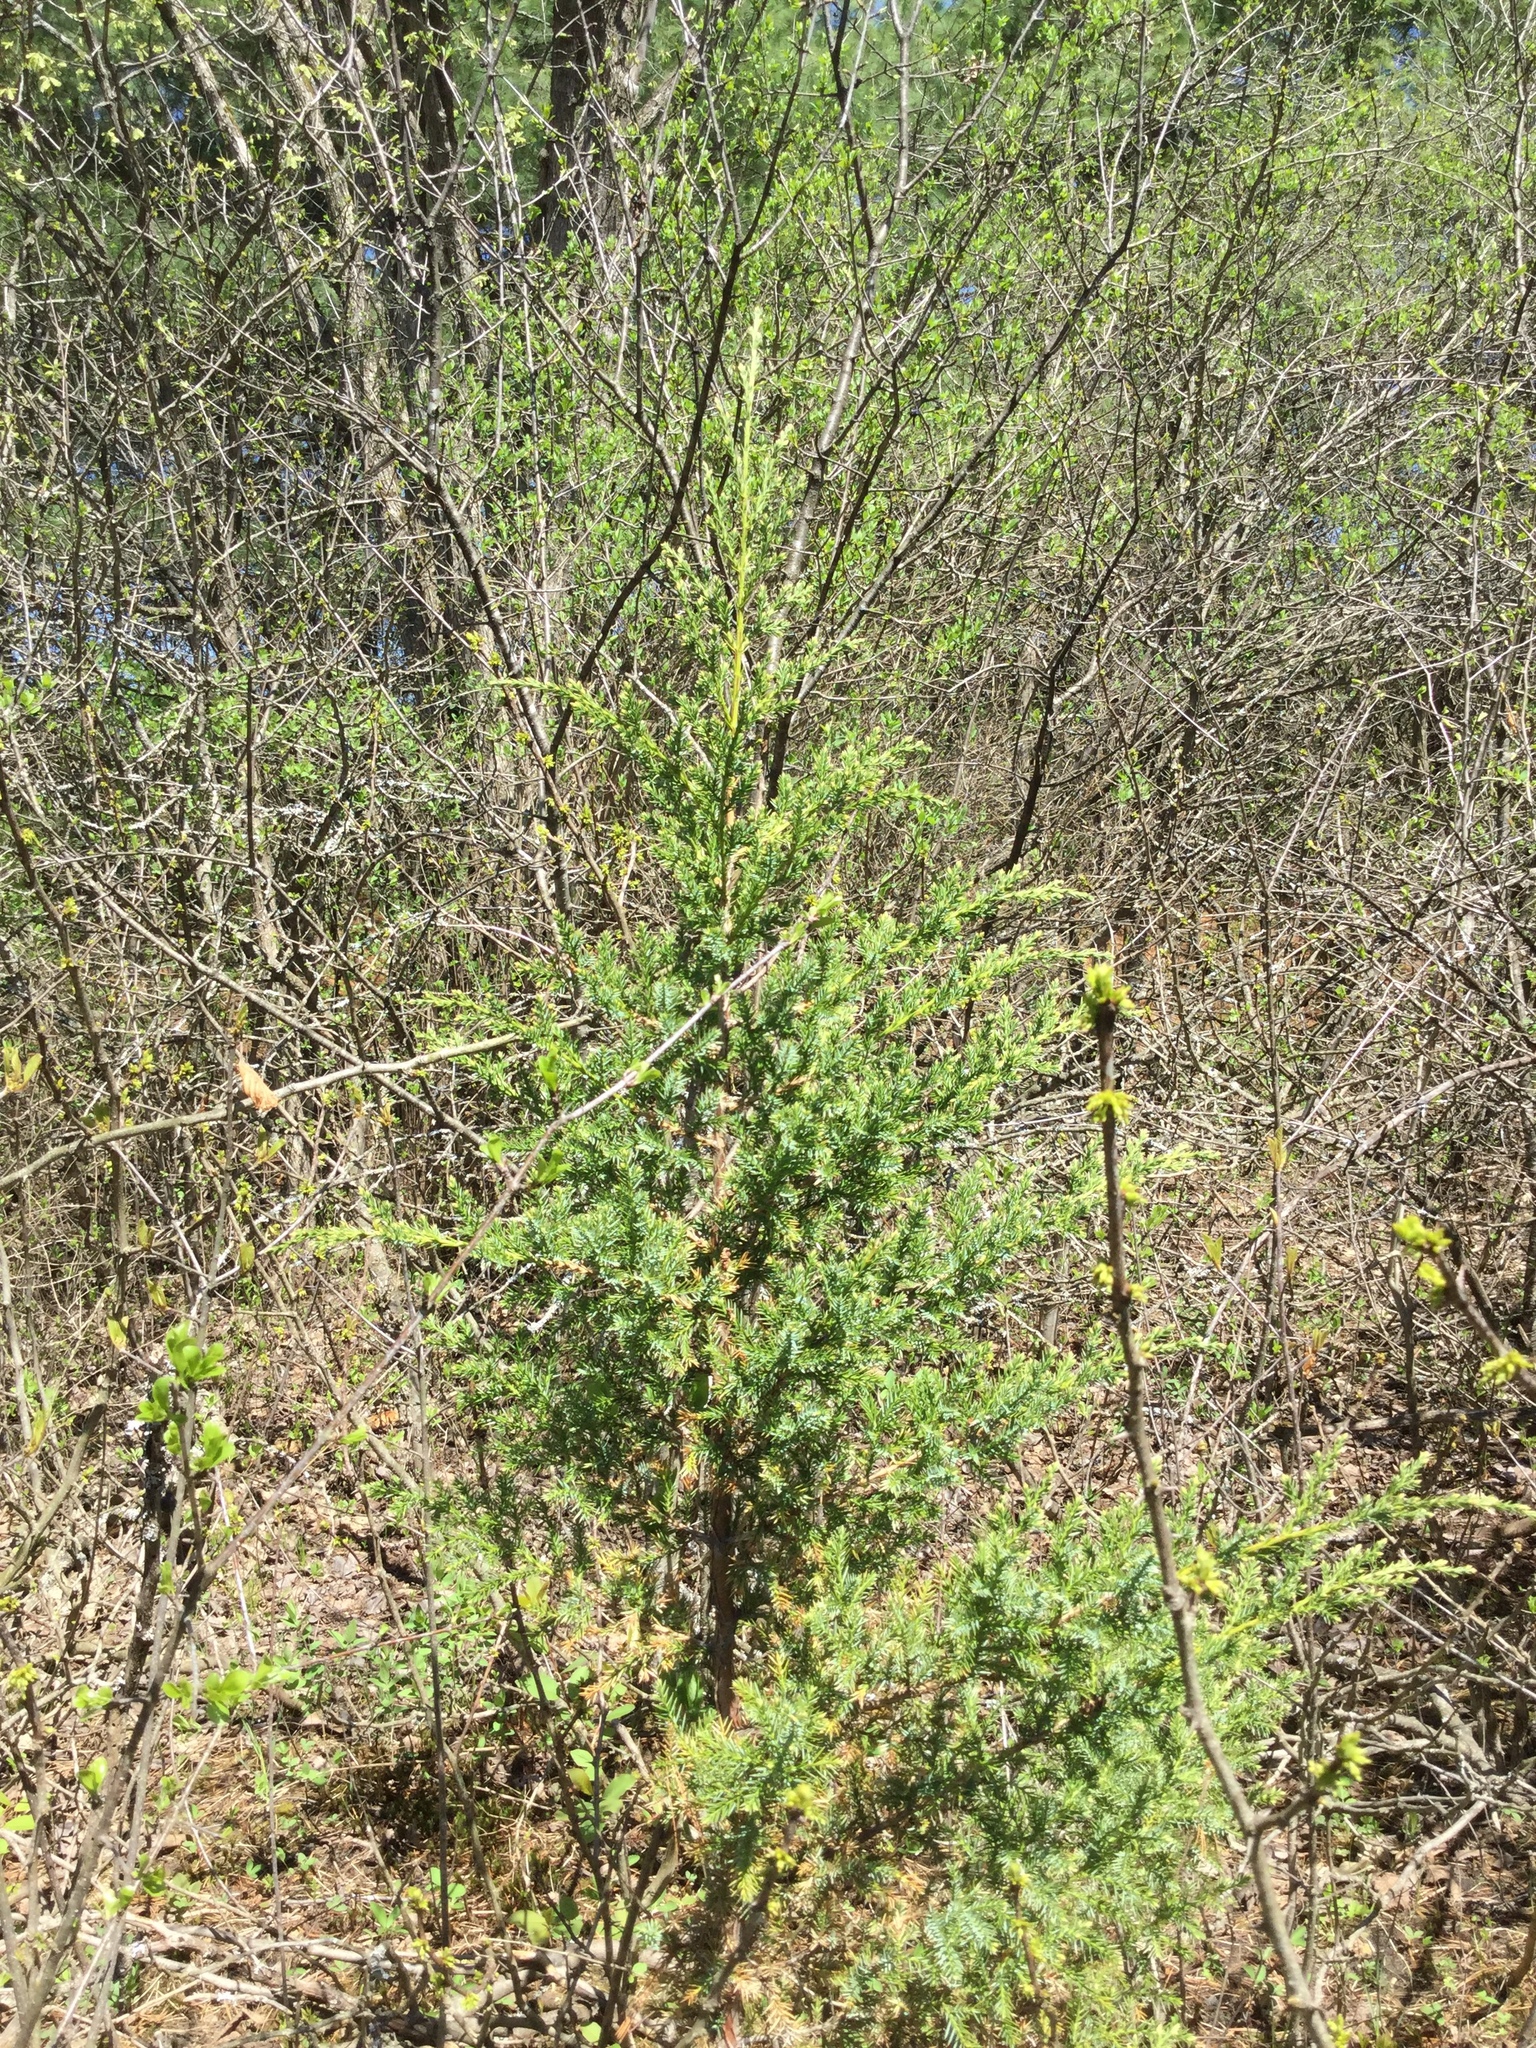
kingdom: Plantae
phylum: Tracheophyta
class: Pinopsida
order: Pinales
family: Cupressaceae
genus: Juniperus
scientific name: Juniperus virginiana
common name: Red juniper
